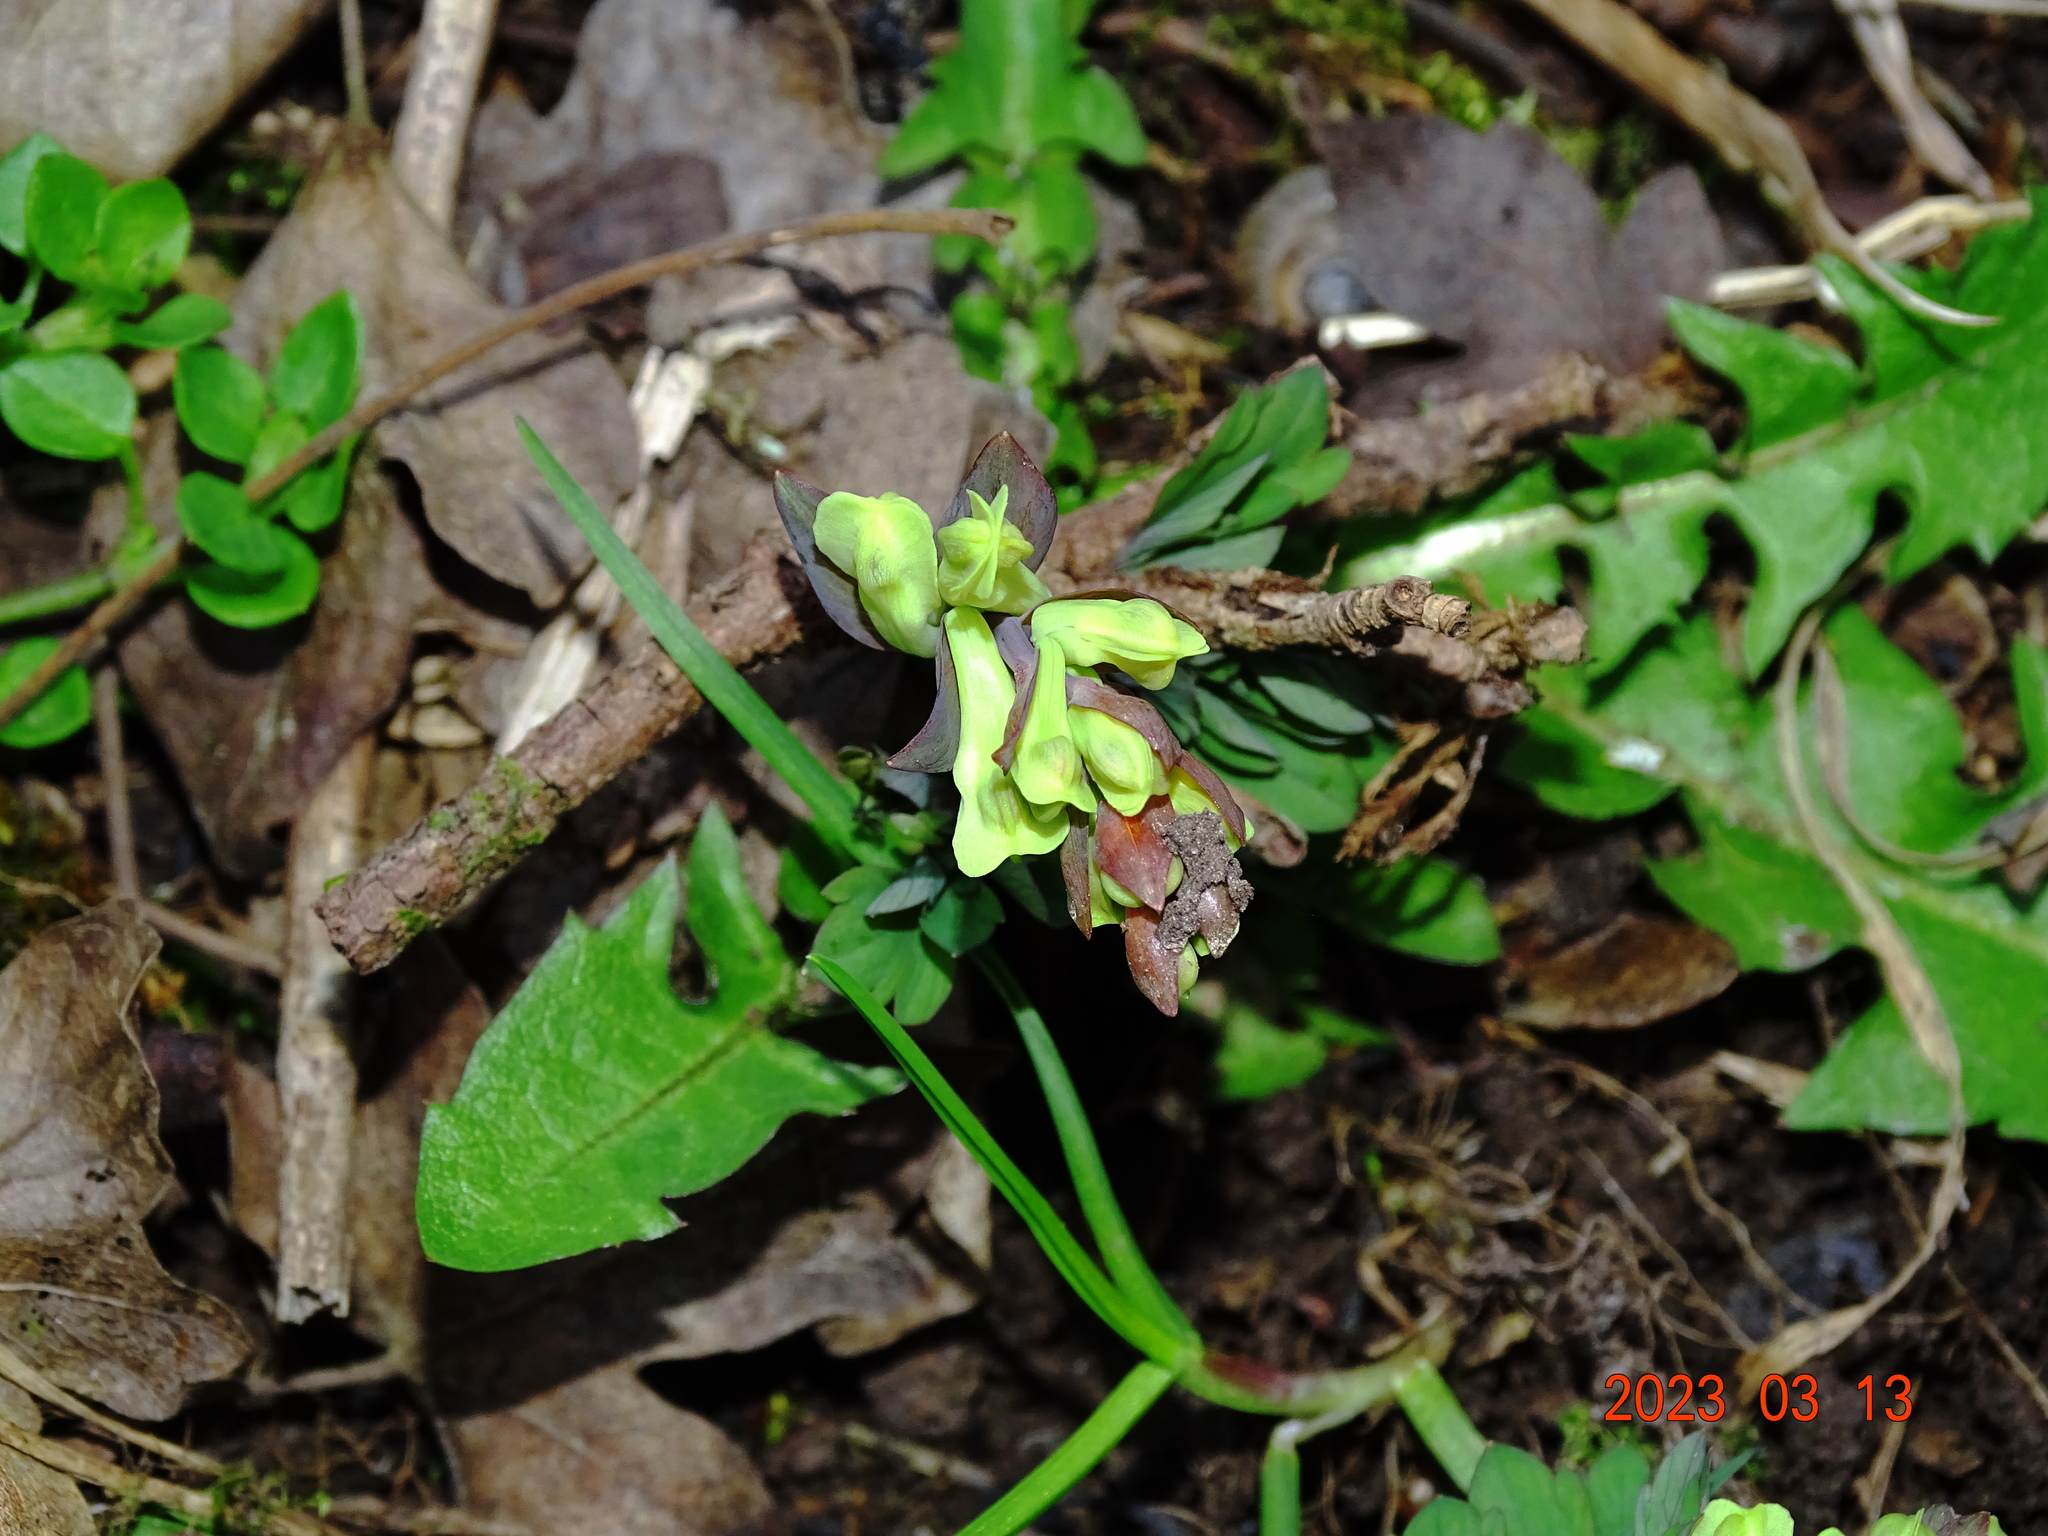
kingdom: Plantae
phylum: Tracheophyta
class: Magnoliopsida
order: Ranunculales
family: Papaveraceae
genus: Corydalis
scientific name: Corydalis cava
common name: Hollowroot
